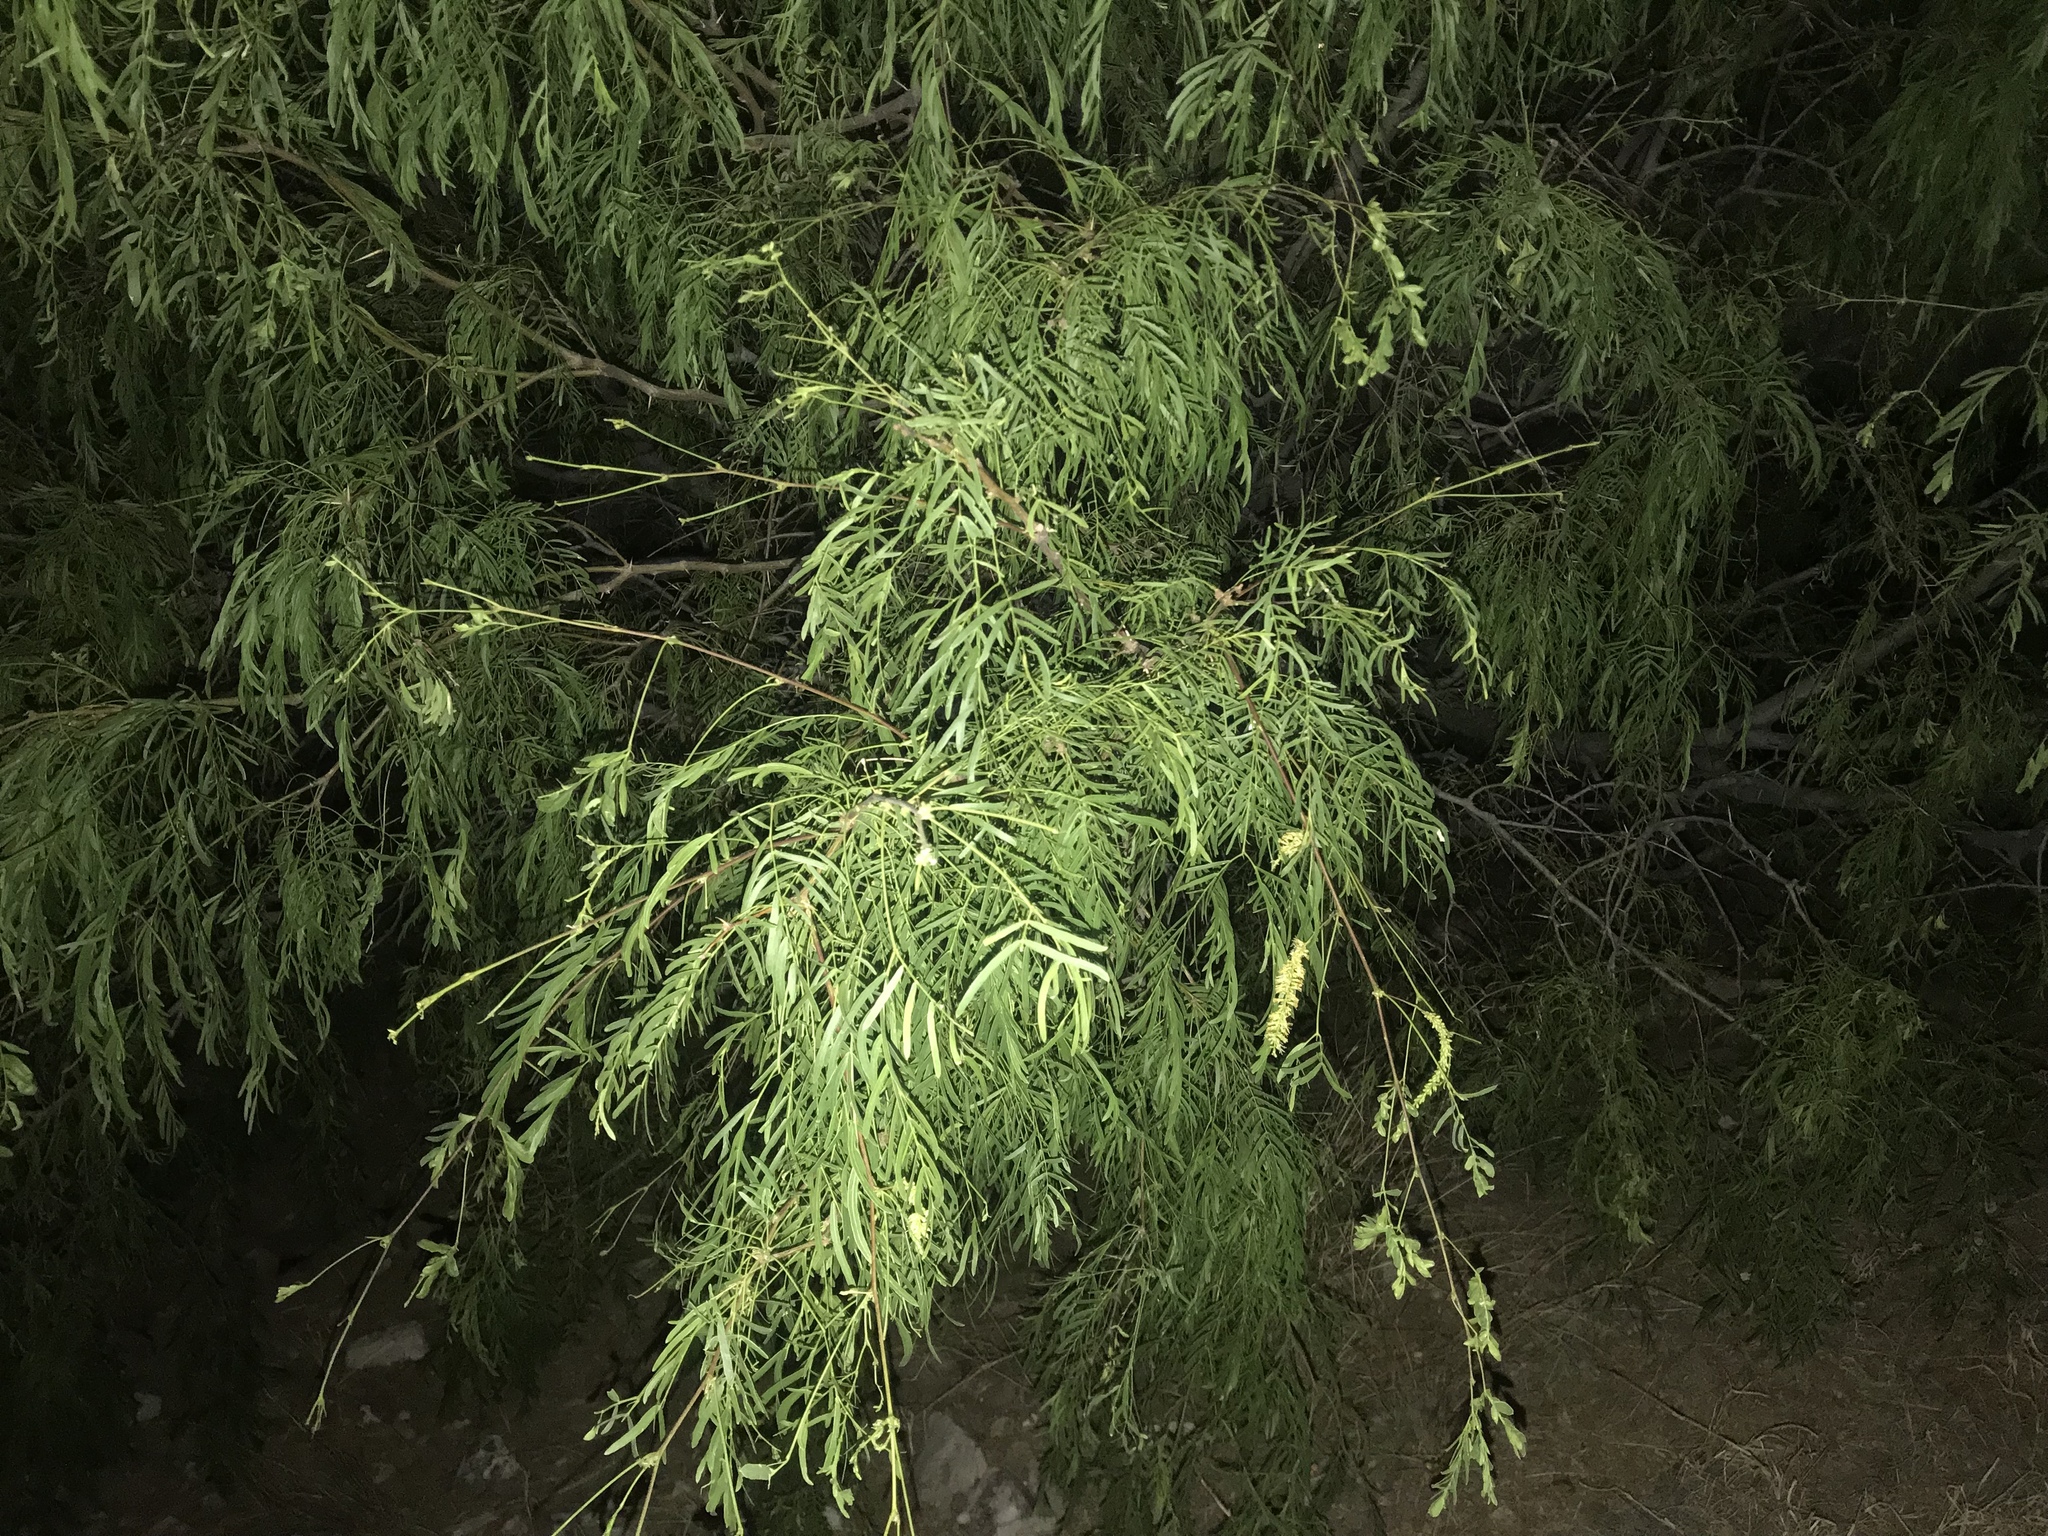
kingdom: Plantae
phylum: Tracheophyta
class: Magnoliopsida
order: Fabales
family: Fabaceae
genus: Prosopis
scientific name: Prosopis glandulosa
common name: Honey mesquite
